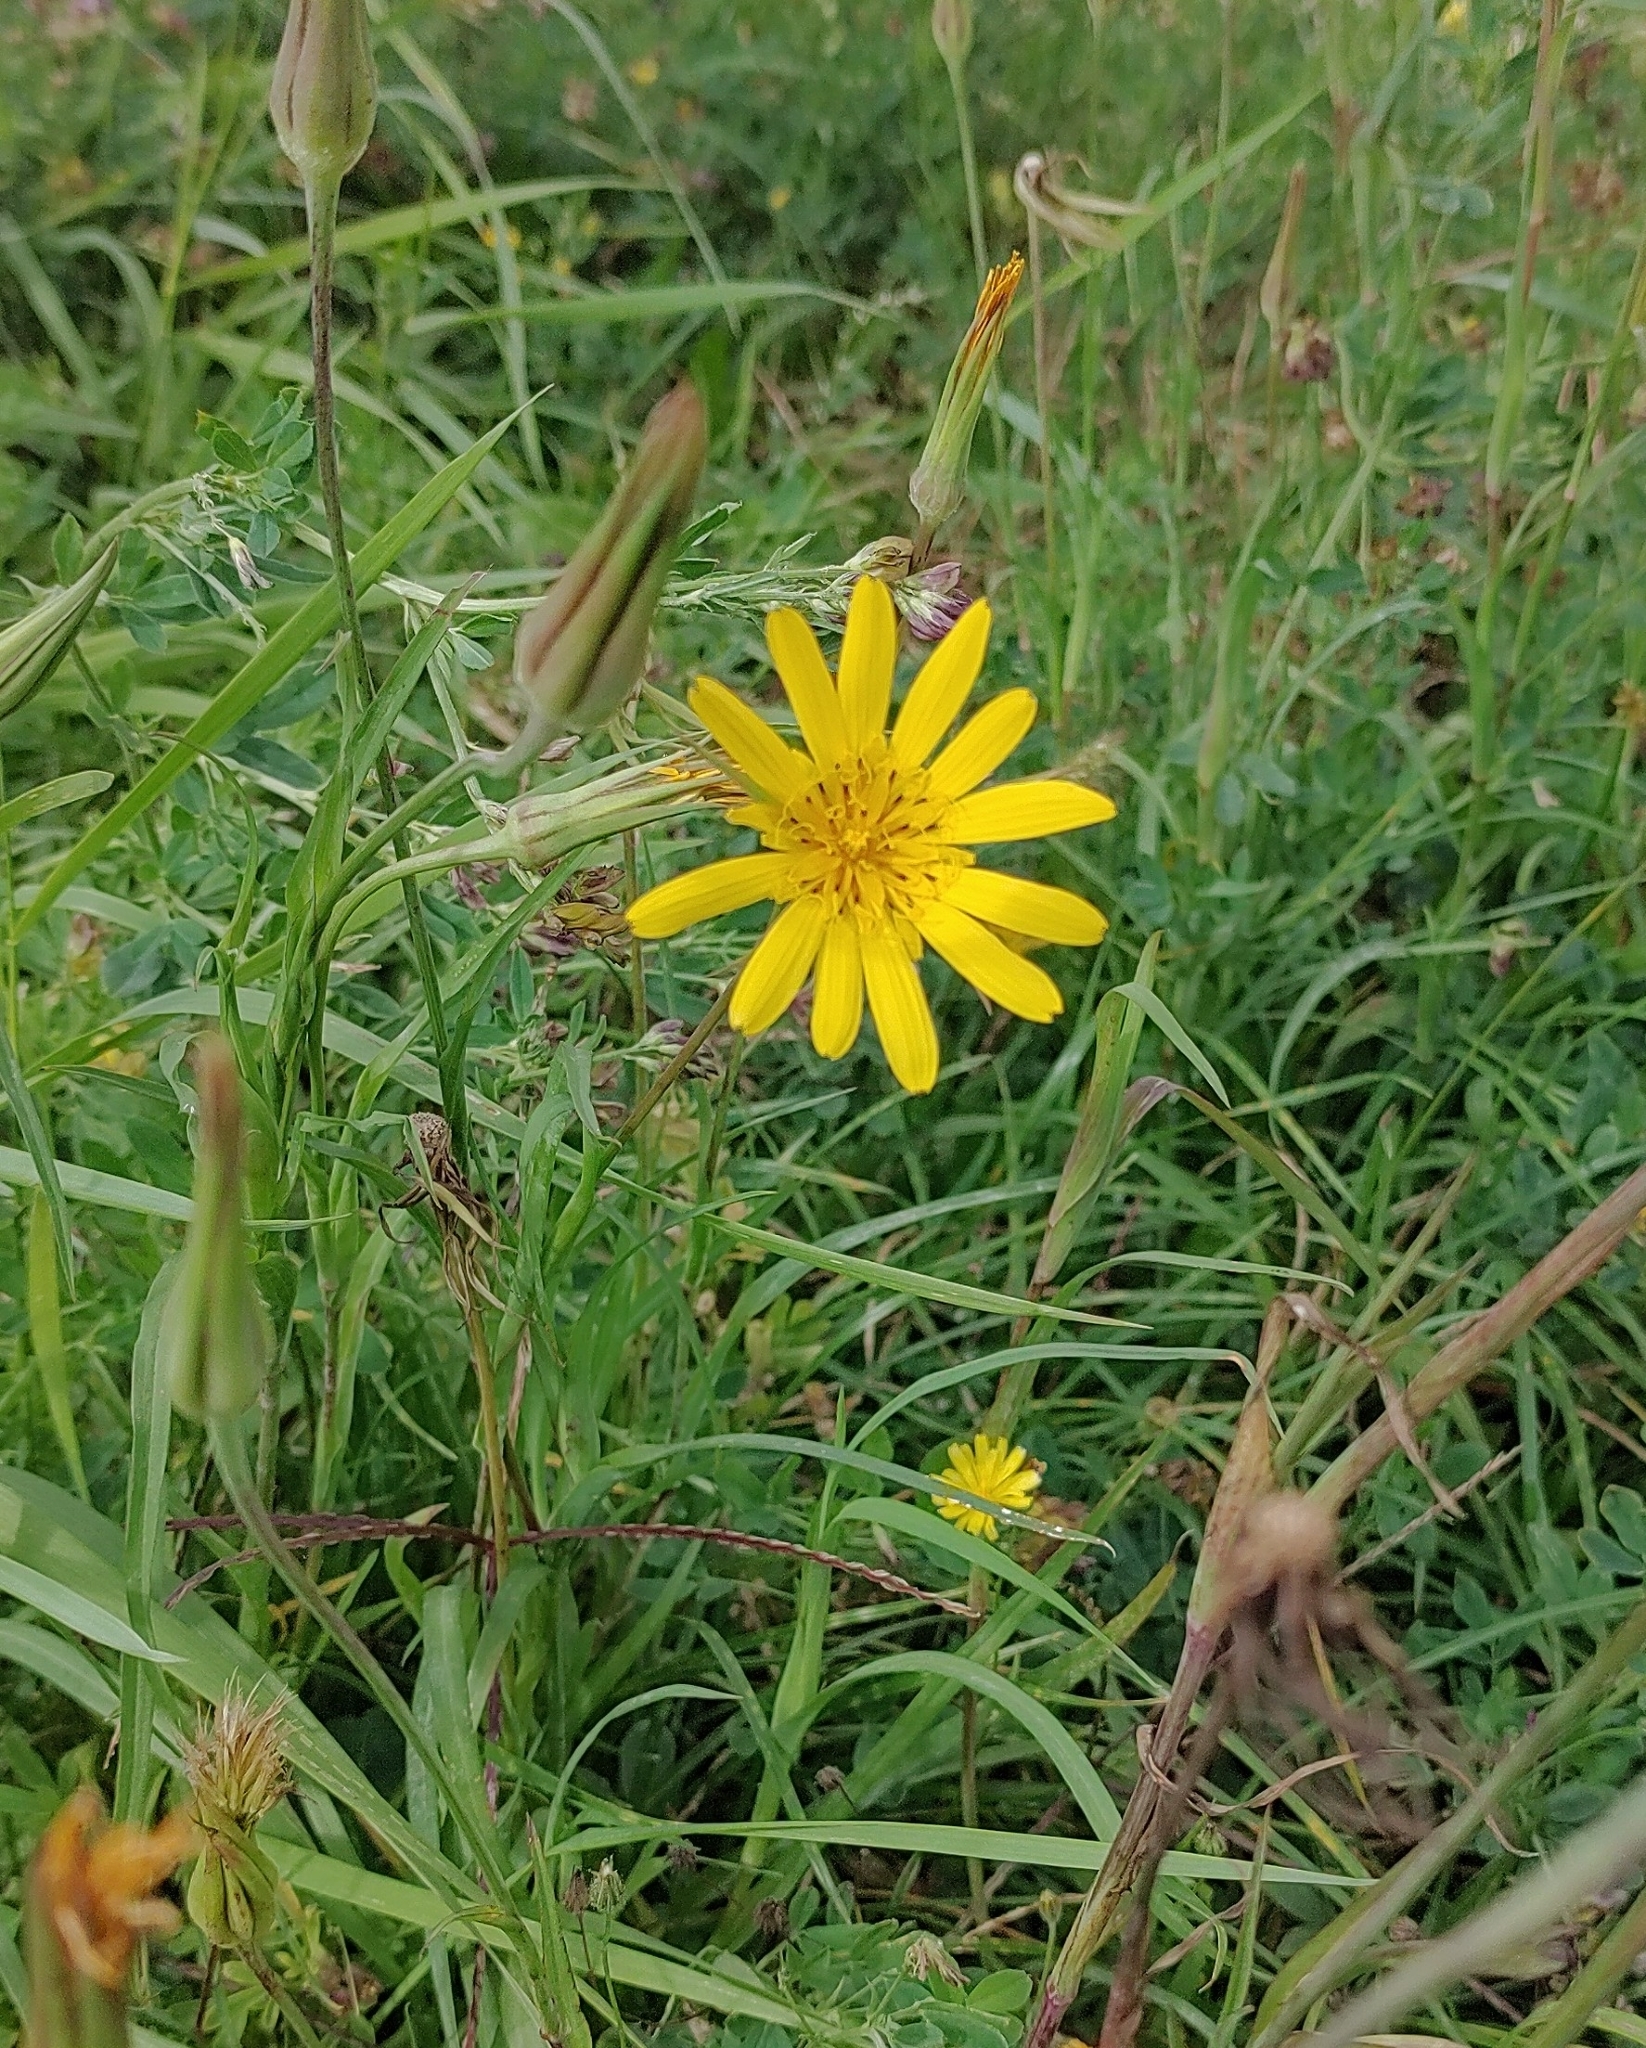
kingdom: Plantae
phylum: Tracheophyta
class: Magnoliopsida
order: Asterales
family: Asteraceae
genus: Tragopogon
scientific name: Tragopogon orientalis
